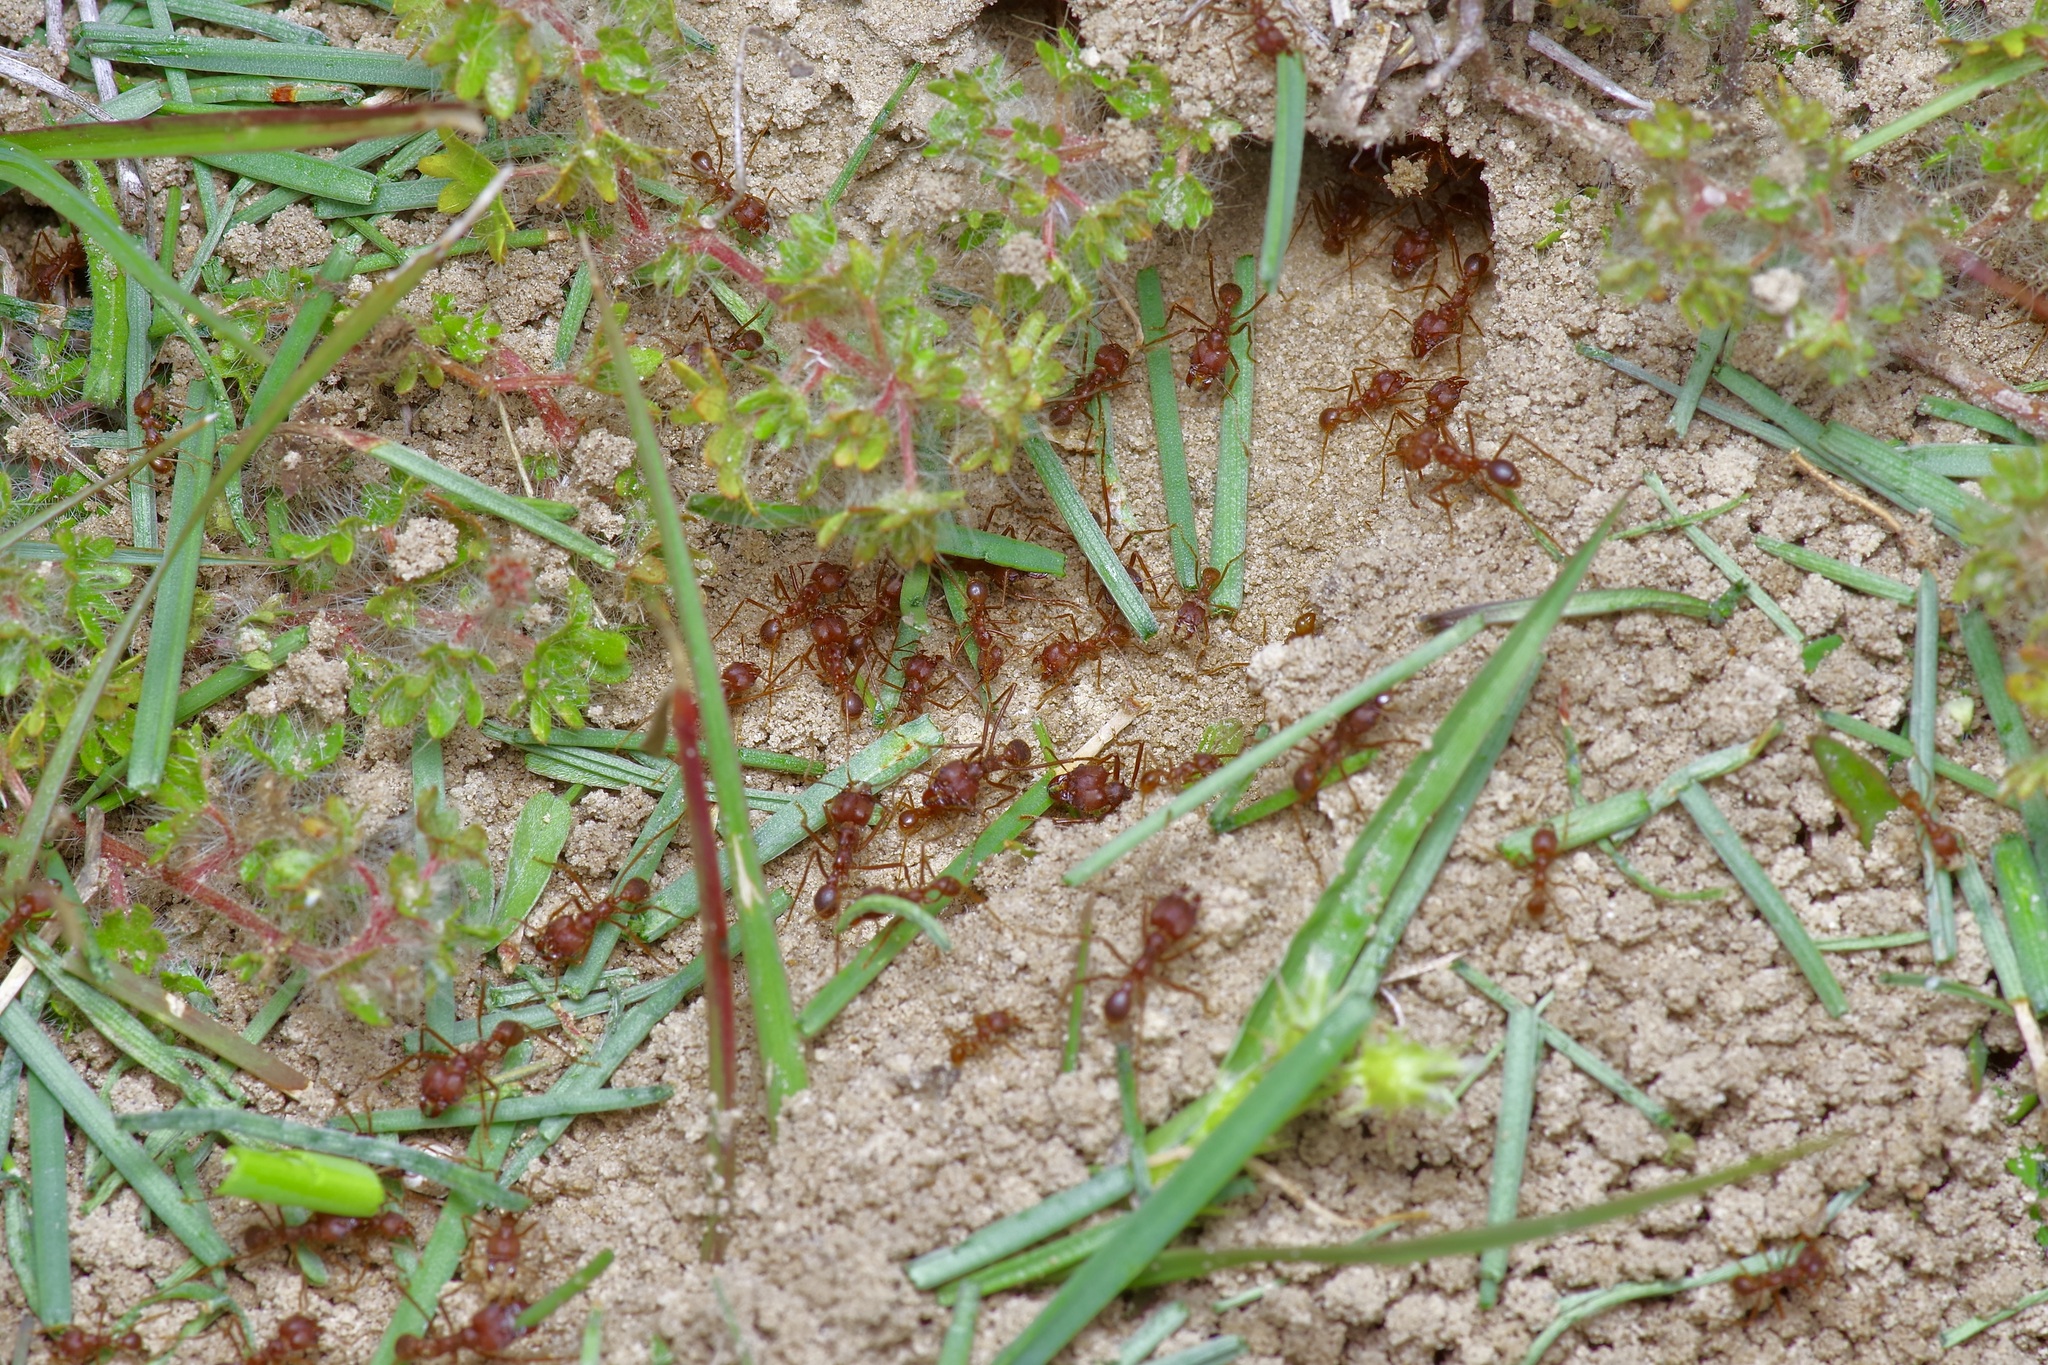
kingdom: Animalia
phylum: Arthropoda
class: Insecta
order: Hymenoptera
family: Formicidae
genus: Atta
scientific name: Atta texana
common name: Texas leafcutting ant
